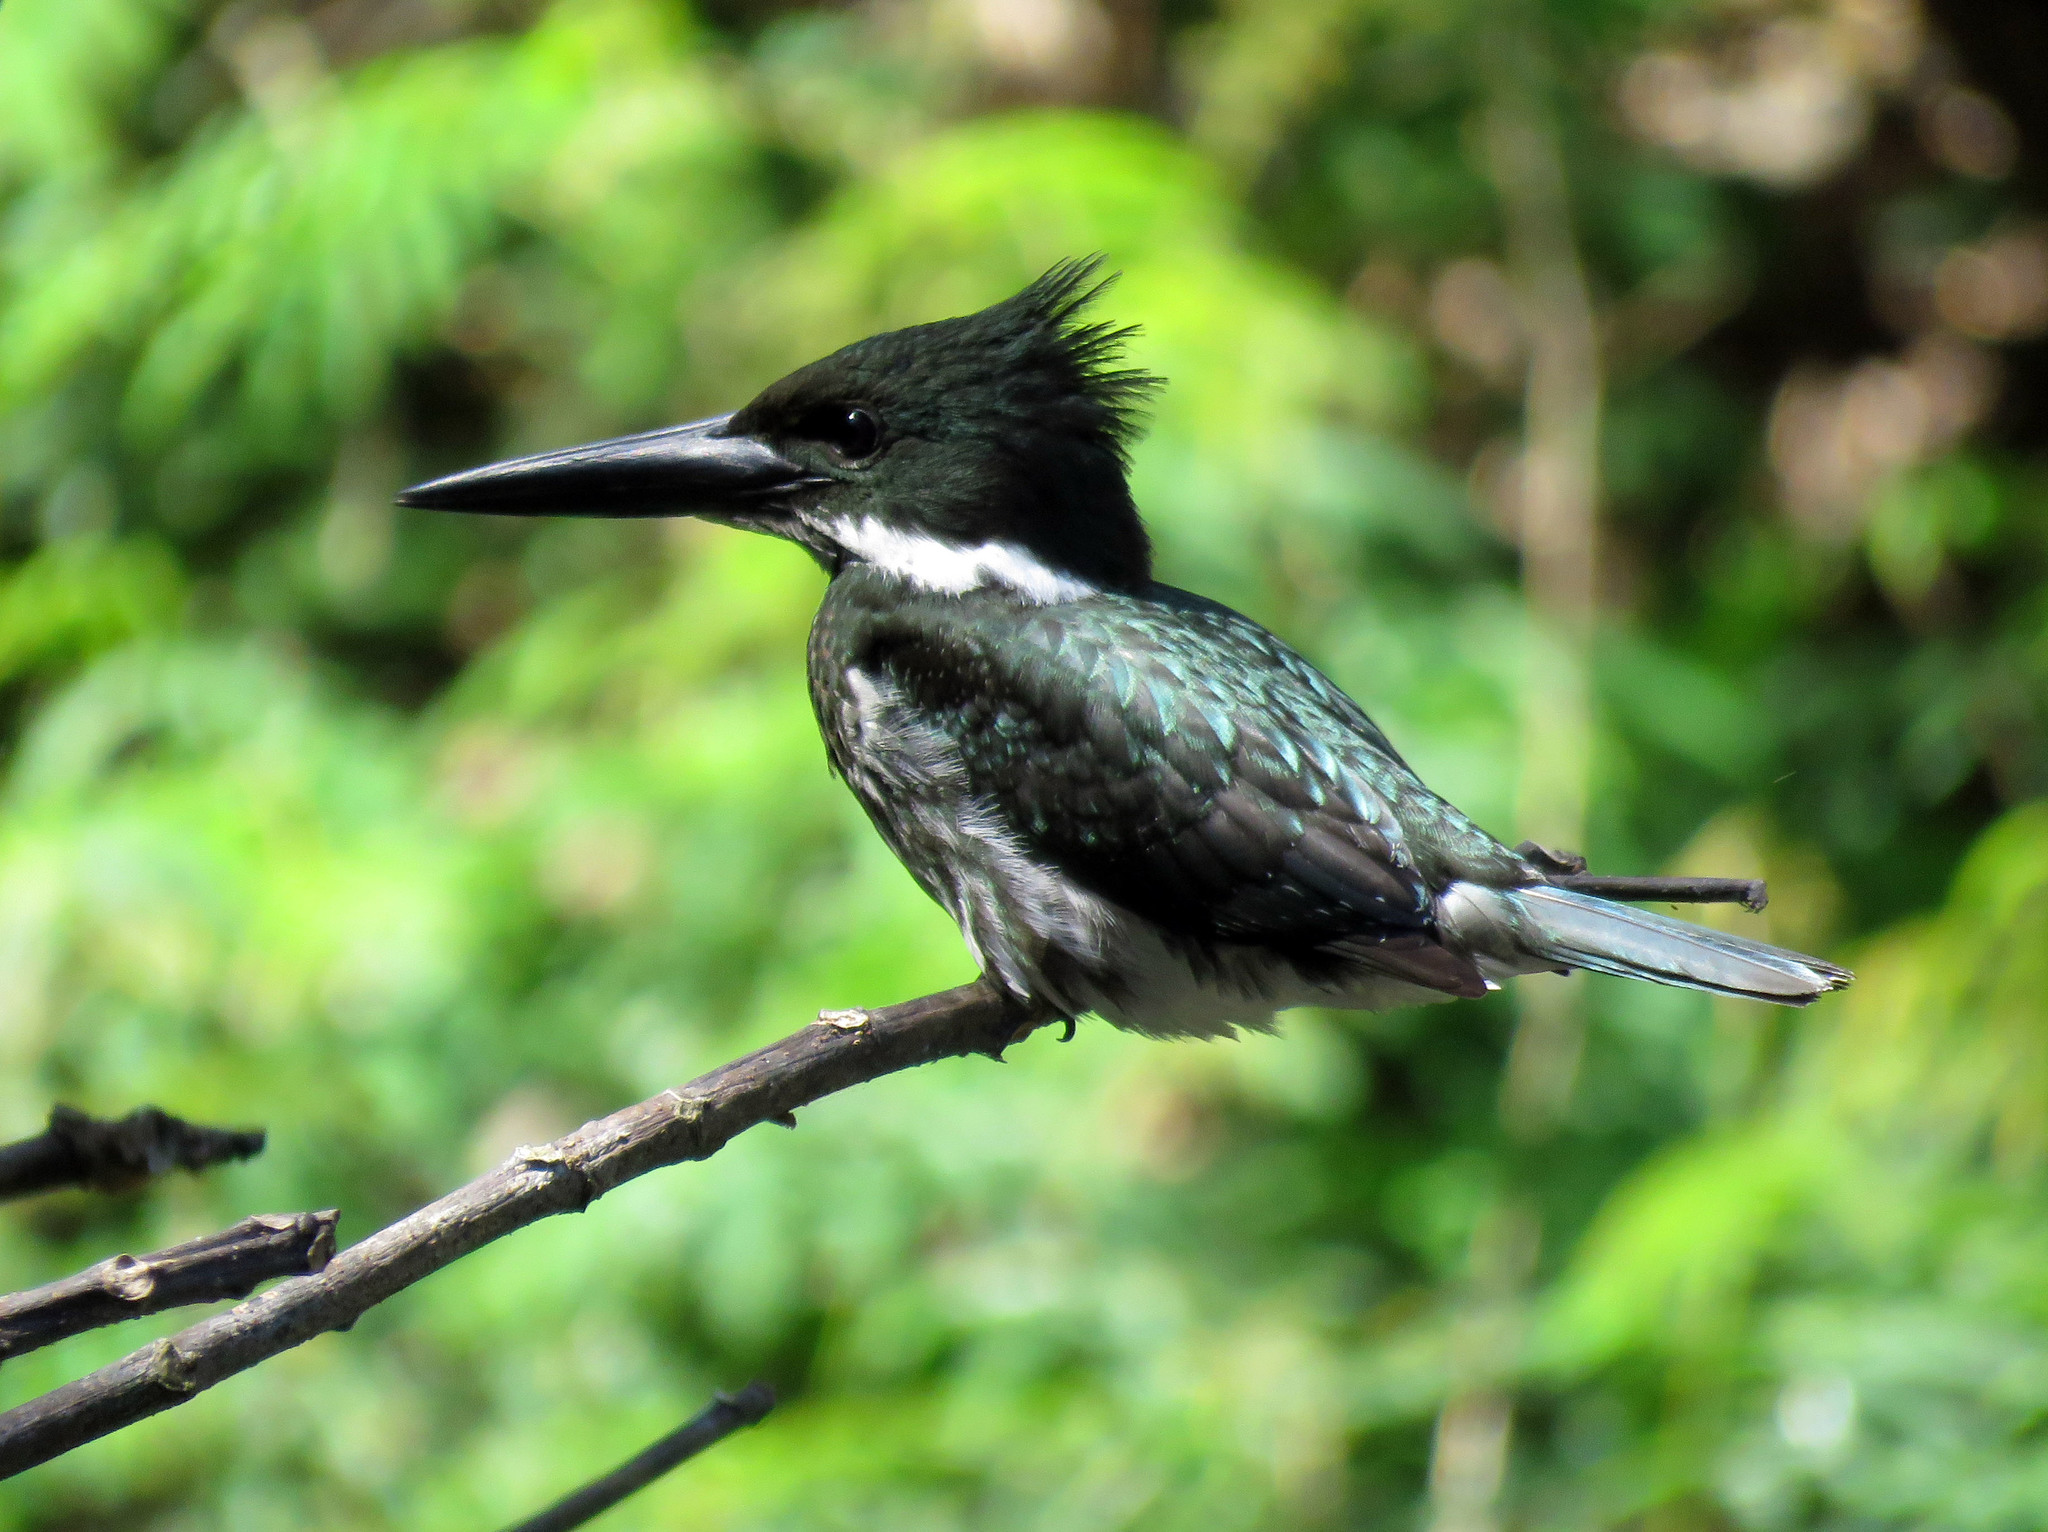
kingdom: Animalia
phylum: Chordata
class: Aves
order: Coraciiformes
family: Alcedinidae
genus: Chloroceryle
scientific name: Chloroceryle amazona
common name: Amazon kingfisher
